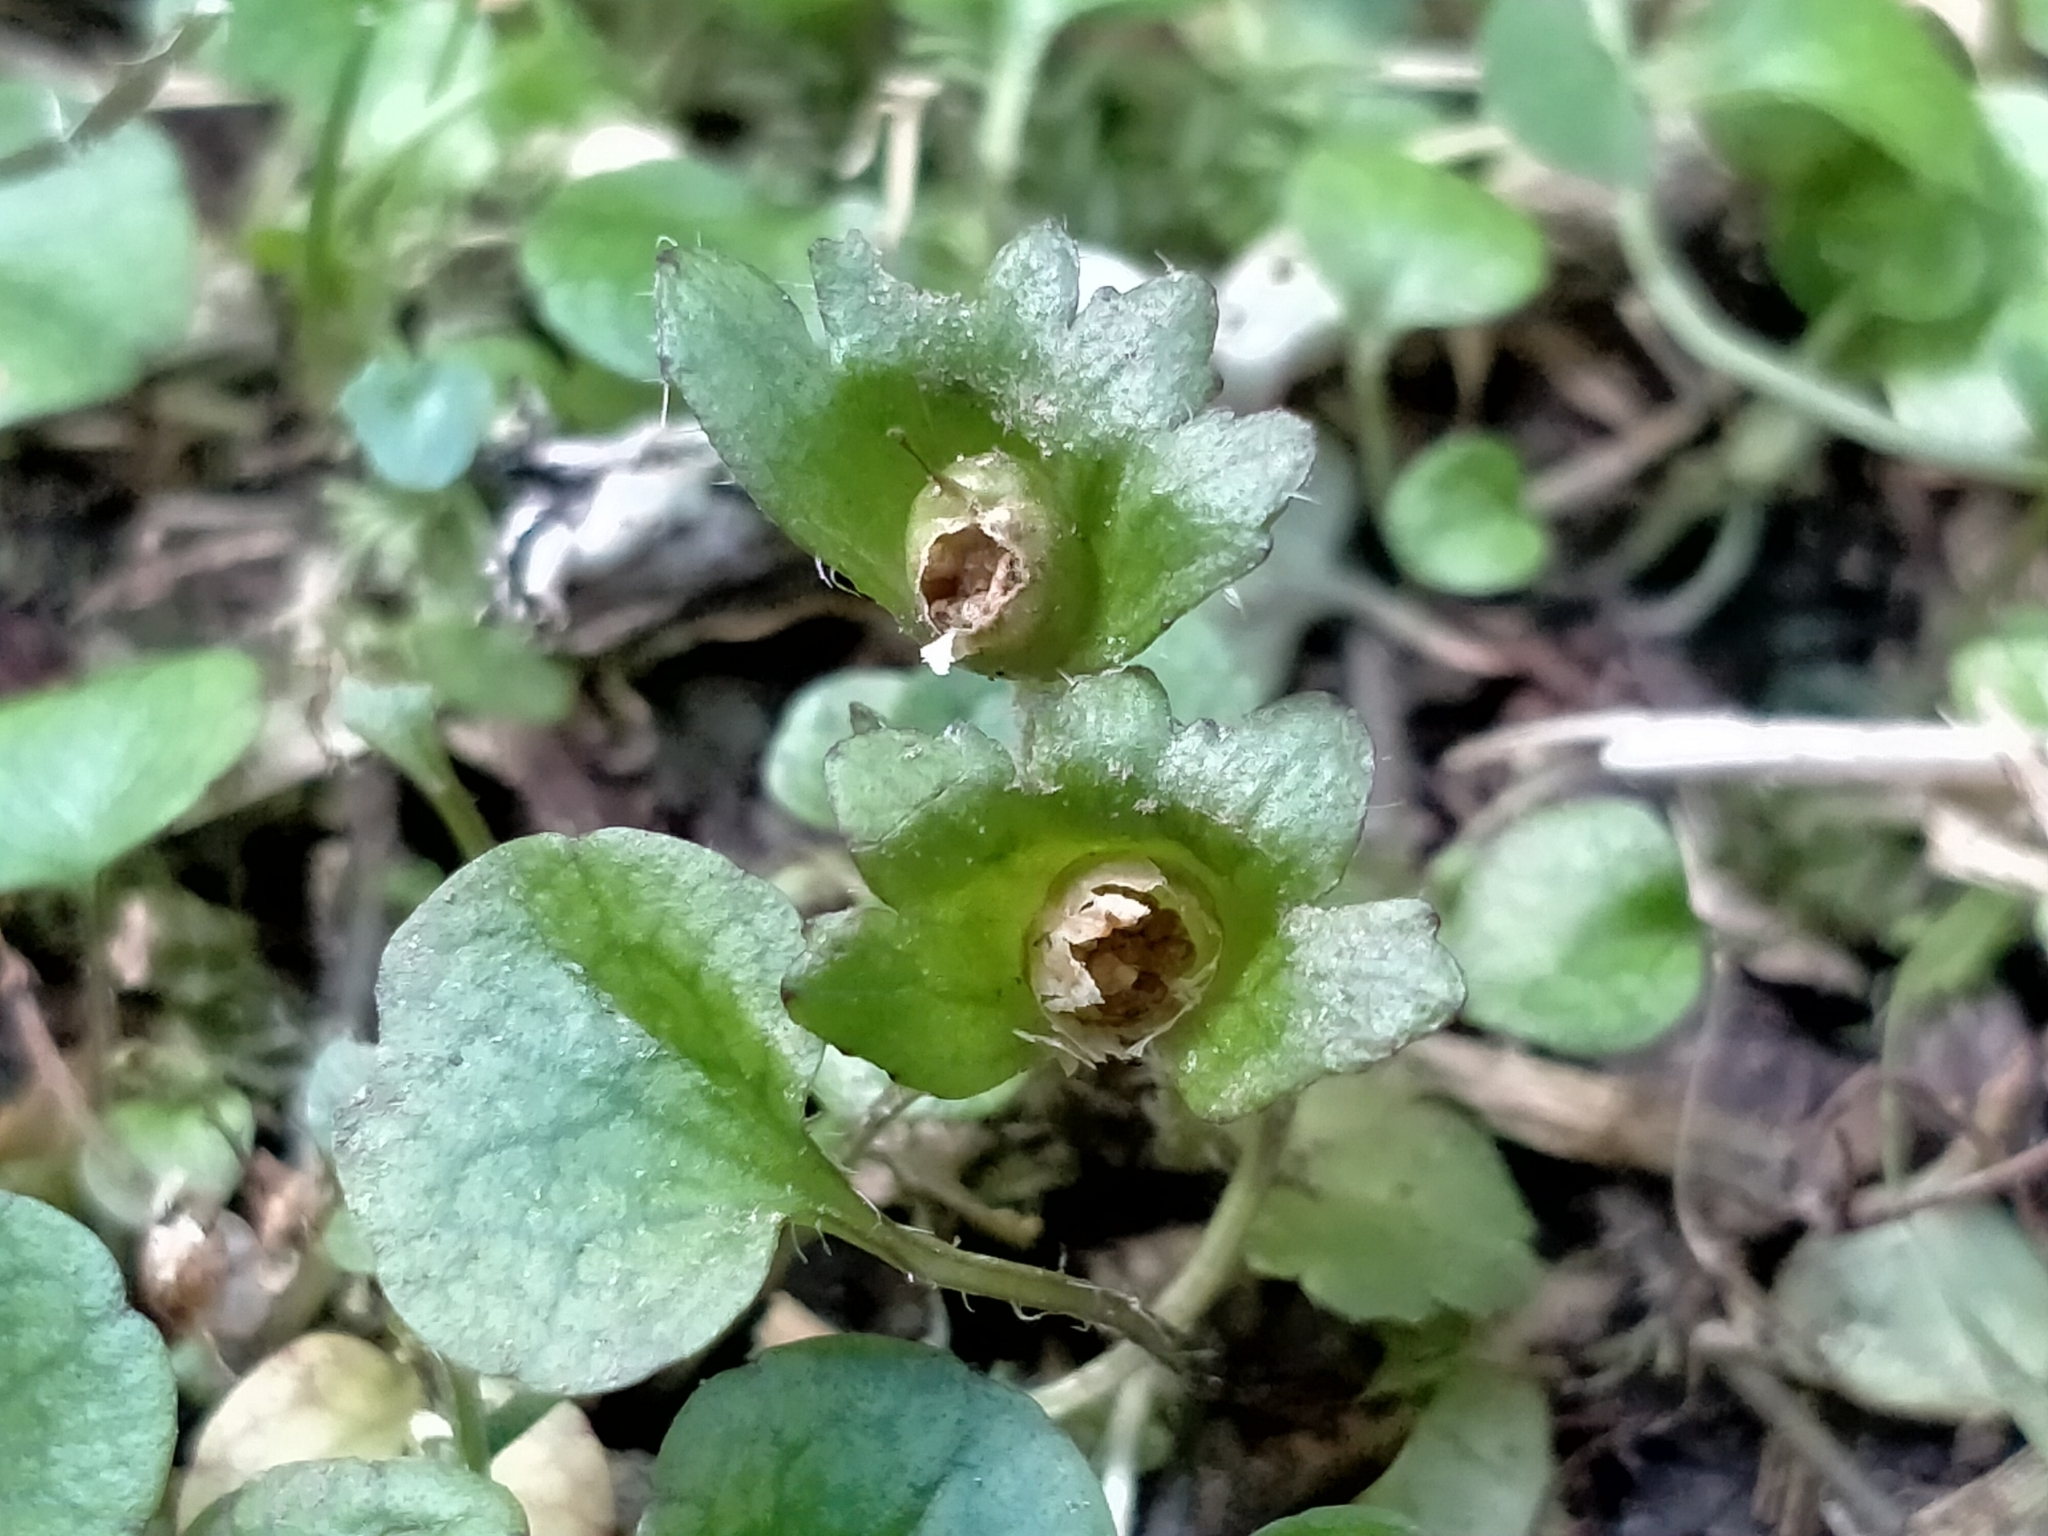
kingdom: Plantae
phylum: Tracheophyta
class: Magnoliopsida
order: Lamiales
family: Plantaginaceae
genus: Ourisia
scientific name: Ourisia modesta
